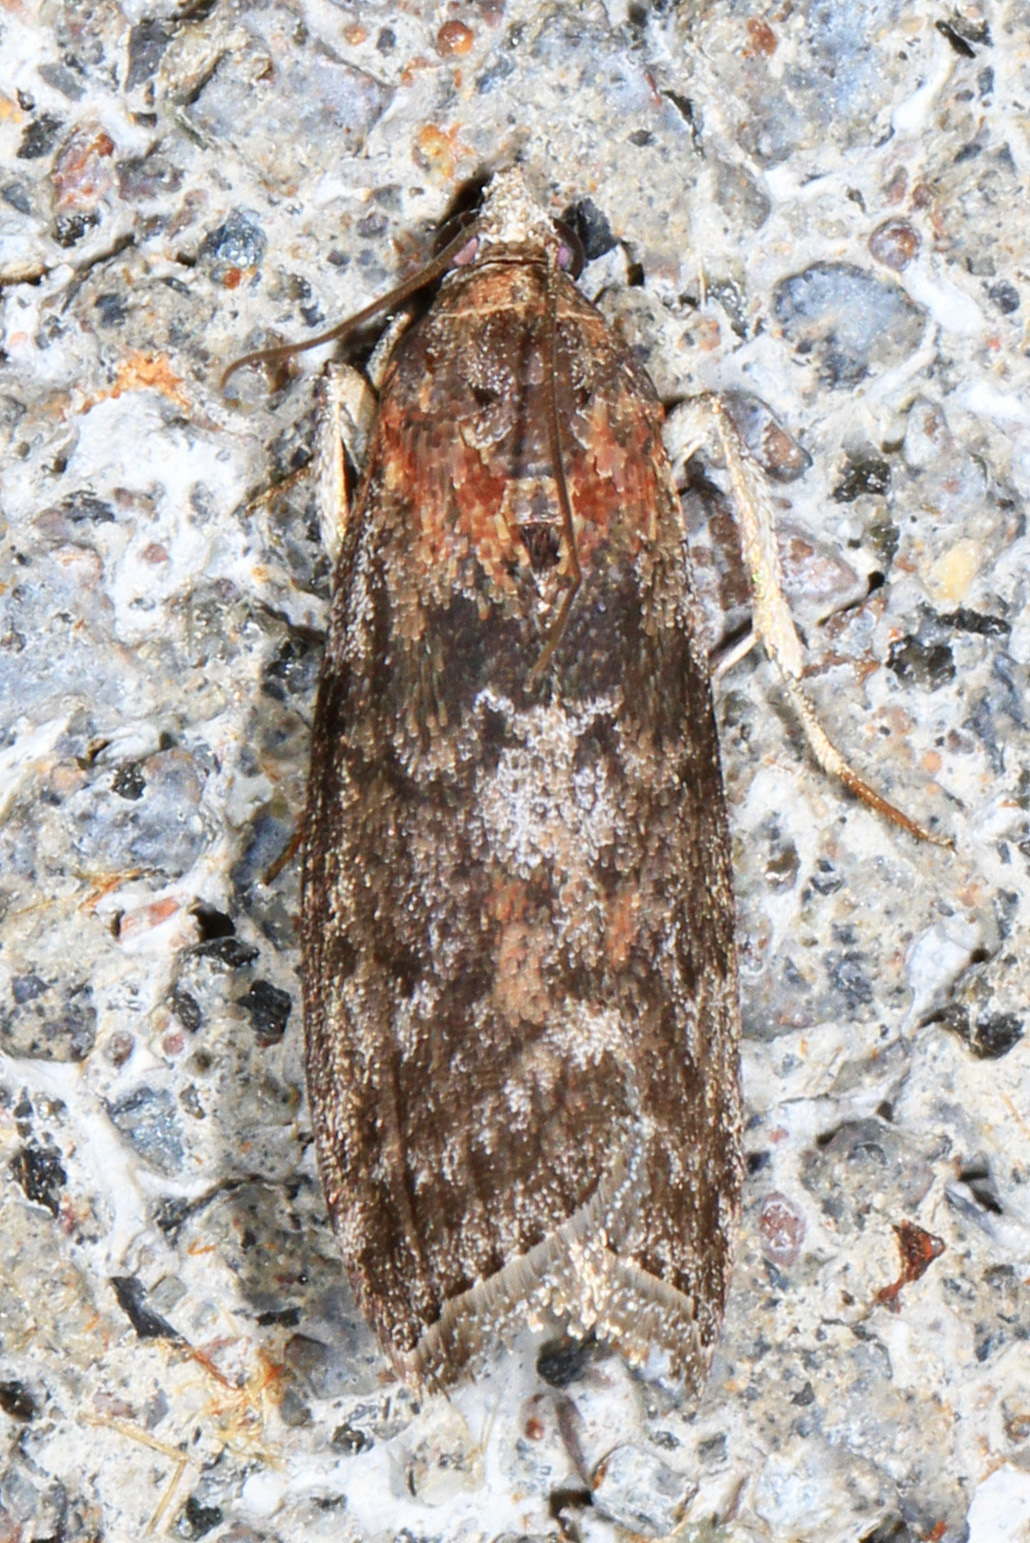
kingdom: Animalia
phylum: Arthropoda
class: Insecta
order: Lepidoptera
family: Pyralidae
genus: Sciota
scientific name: Sciota subcaesiella
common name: Locust leafroller
